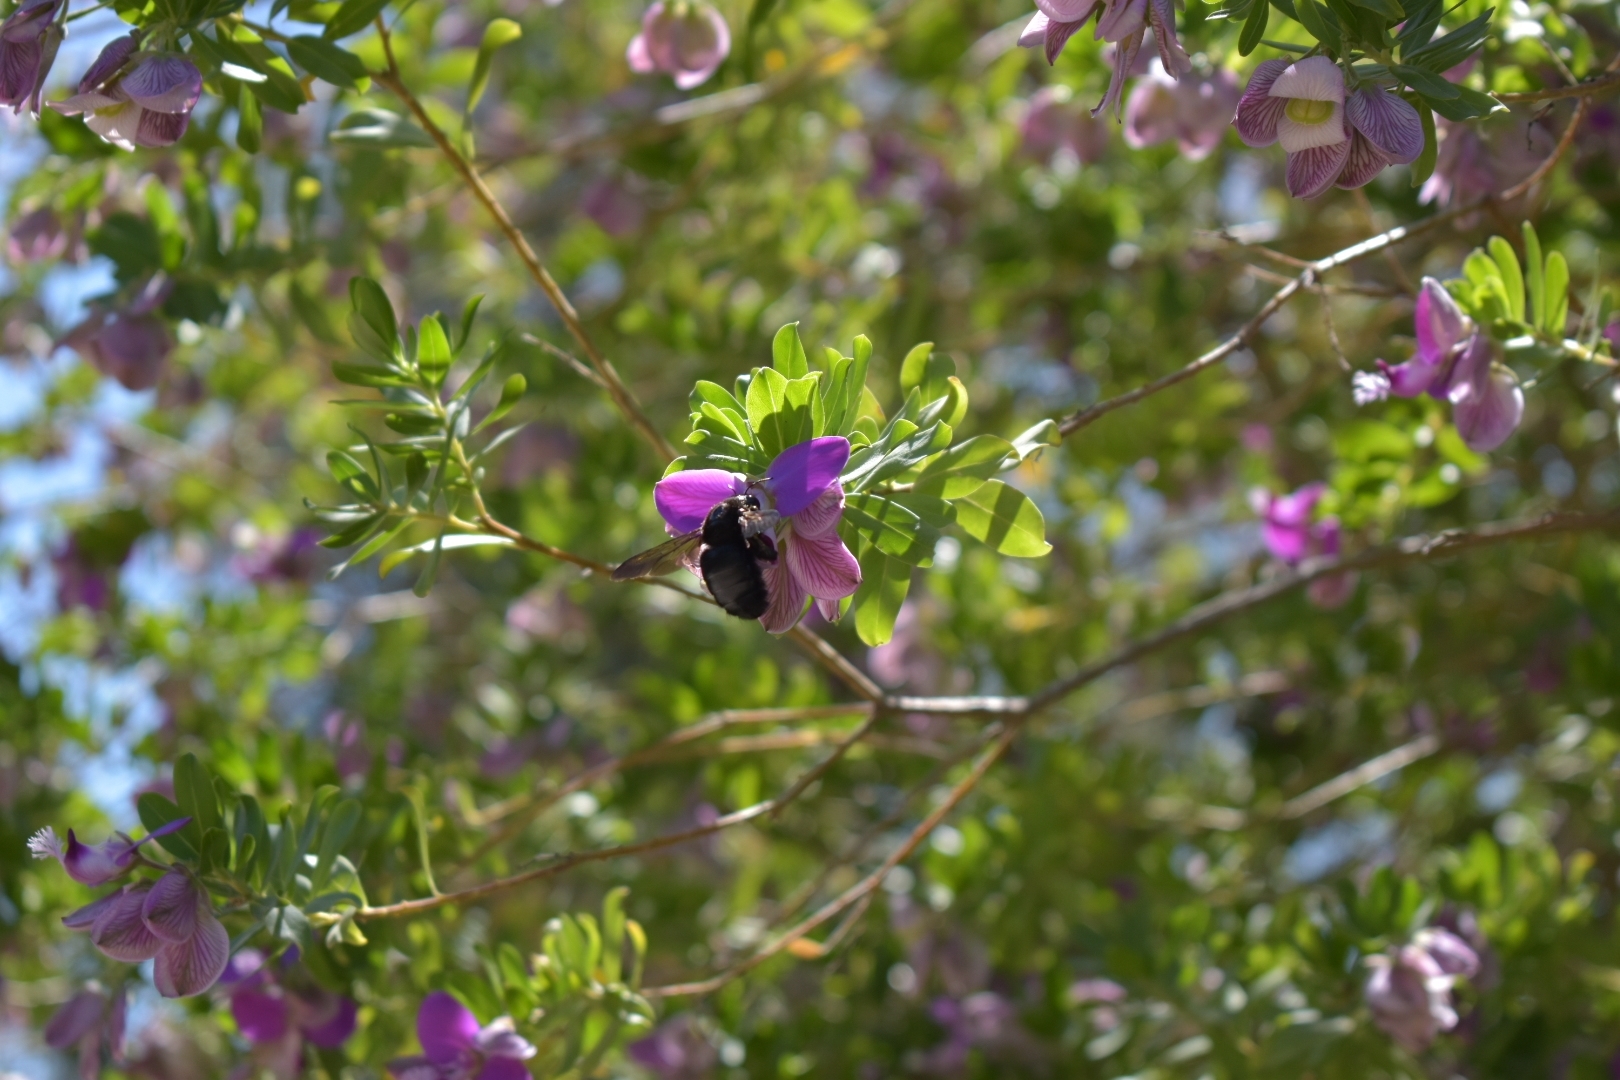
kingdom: Animalia
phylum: Arthropoda
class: Insecta
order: Hymenoptera
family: Apidae
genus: Xylocopa
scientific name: Xylocopa sonorina
